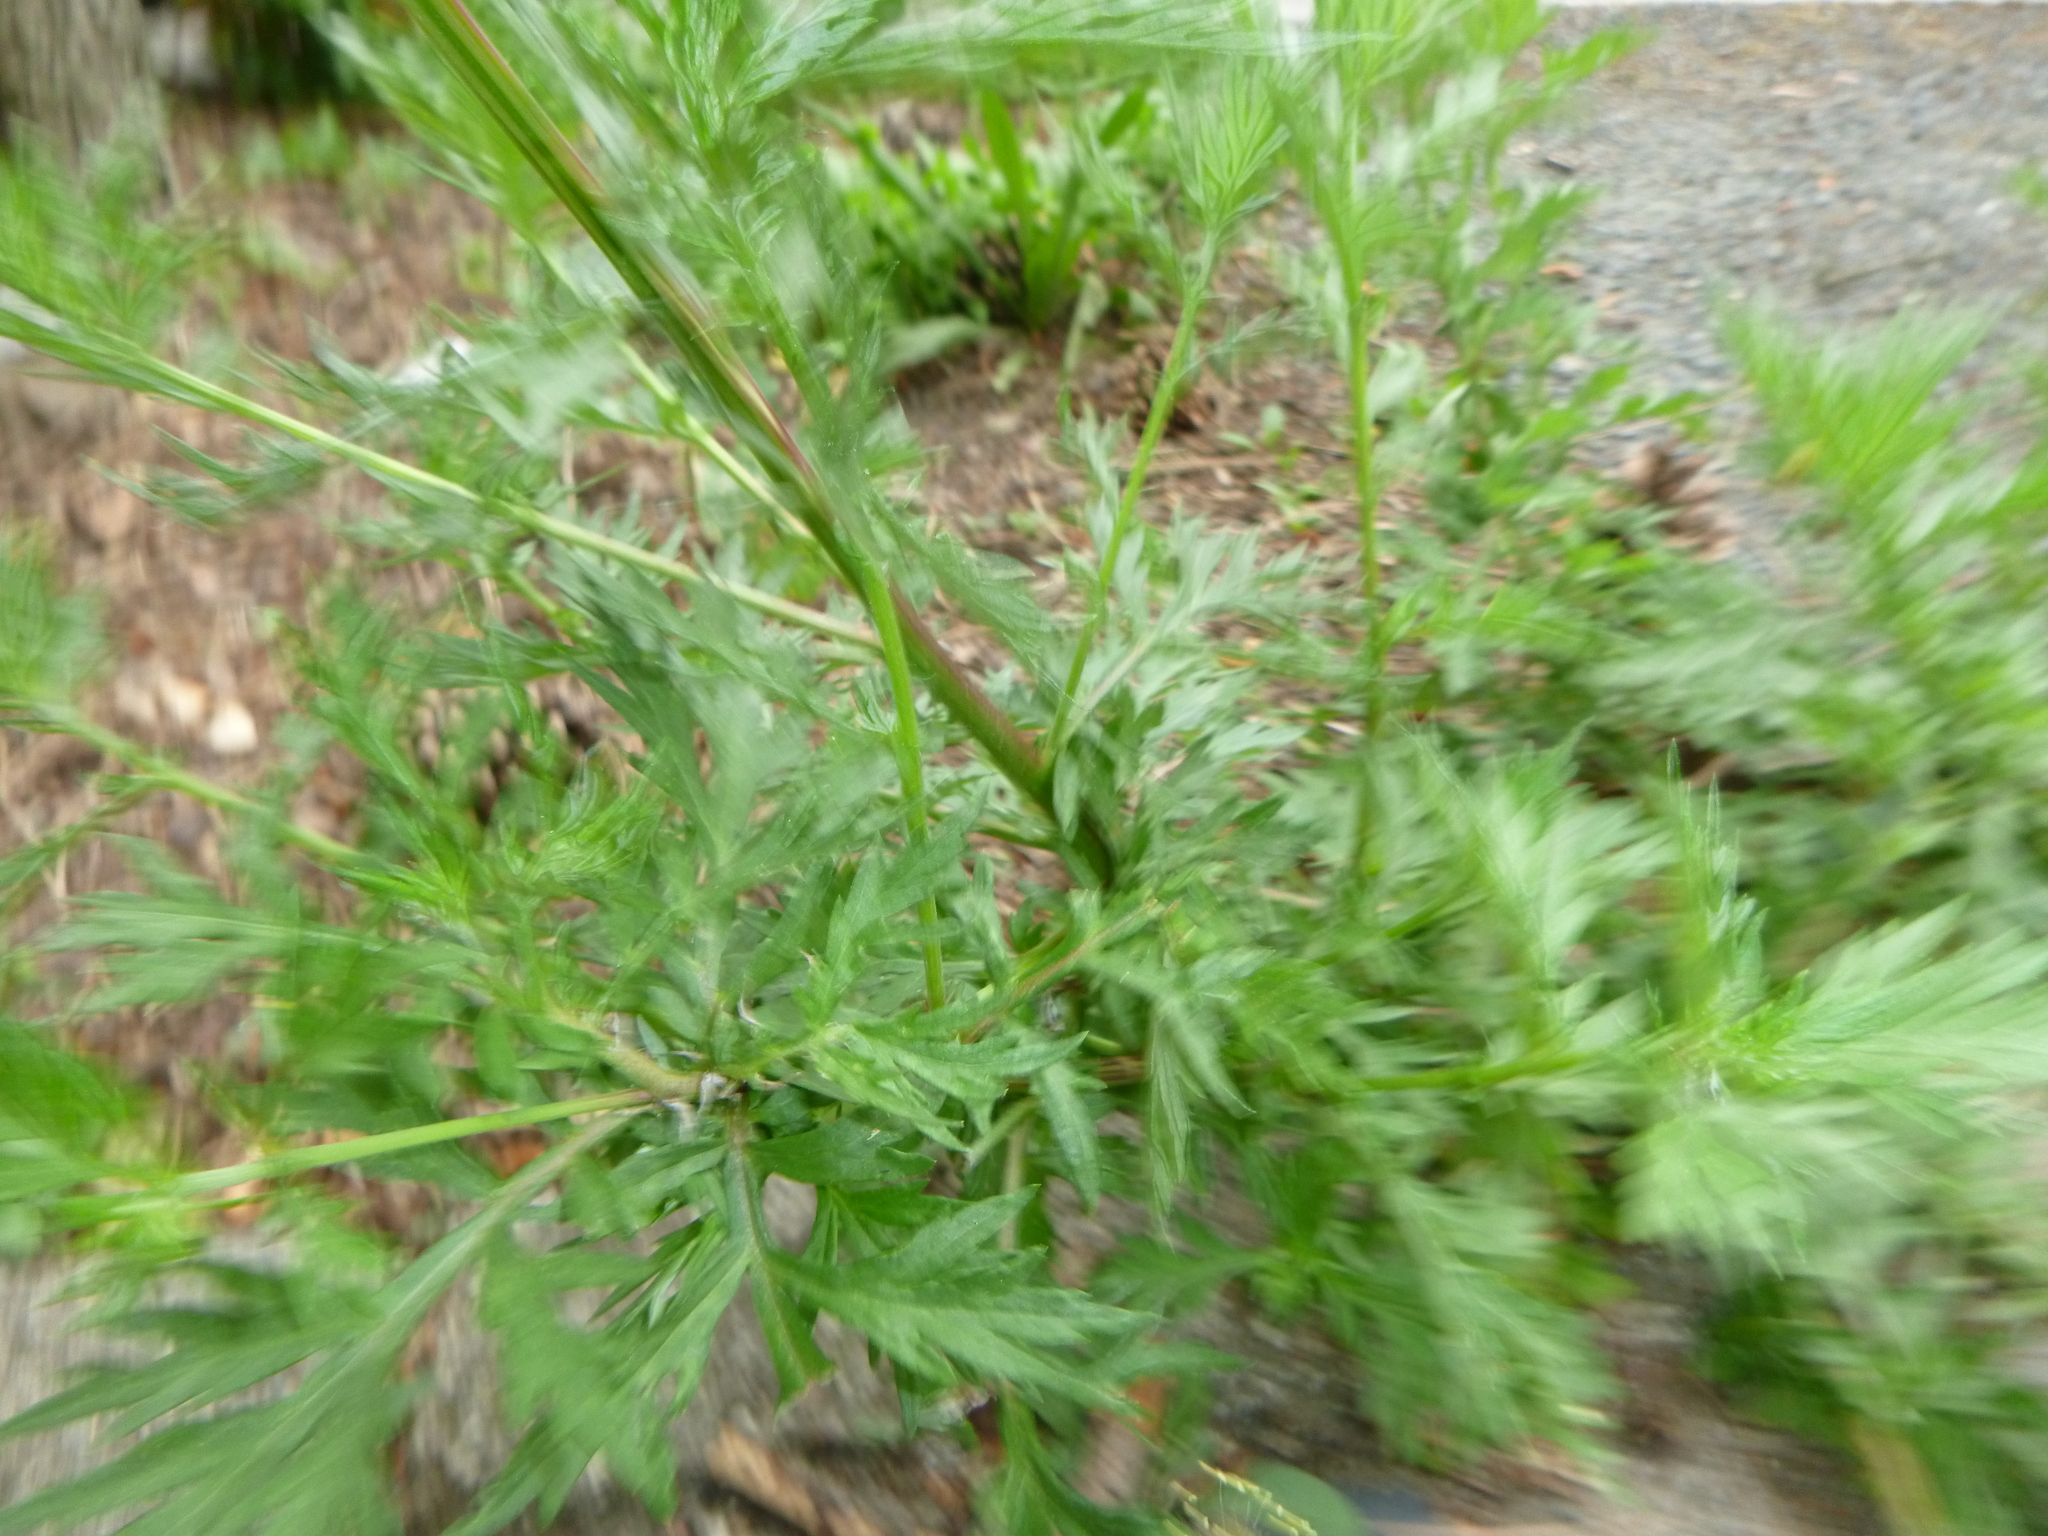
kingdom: Plantae
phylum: Tracheophyta
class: Magnoliopsida
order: Asterales
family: Asteraceae
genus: Artemisia
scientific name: Artemisia vulgaris
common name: Mugwort
